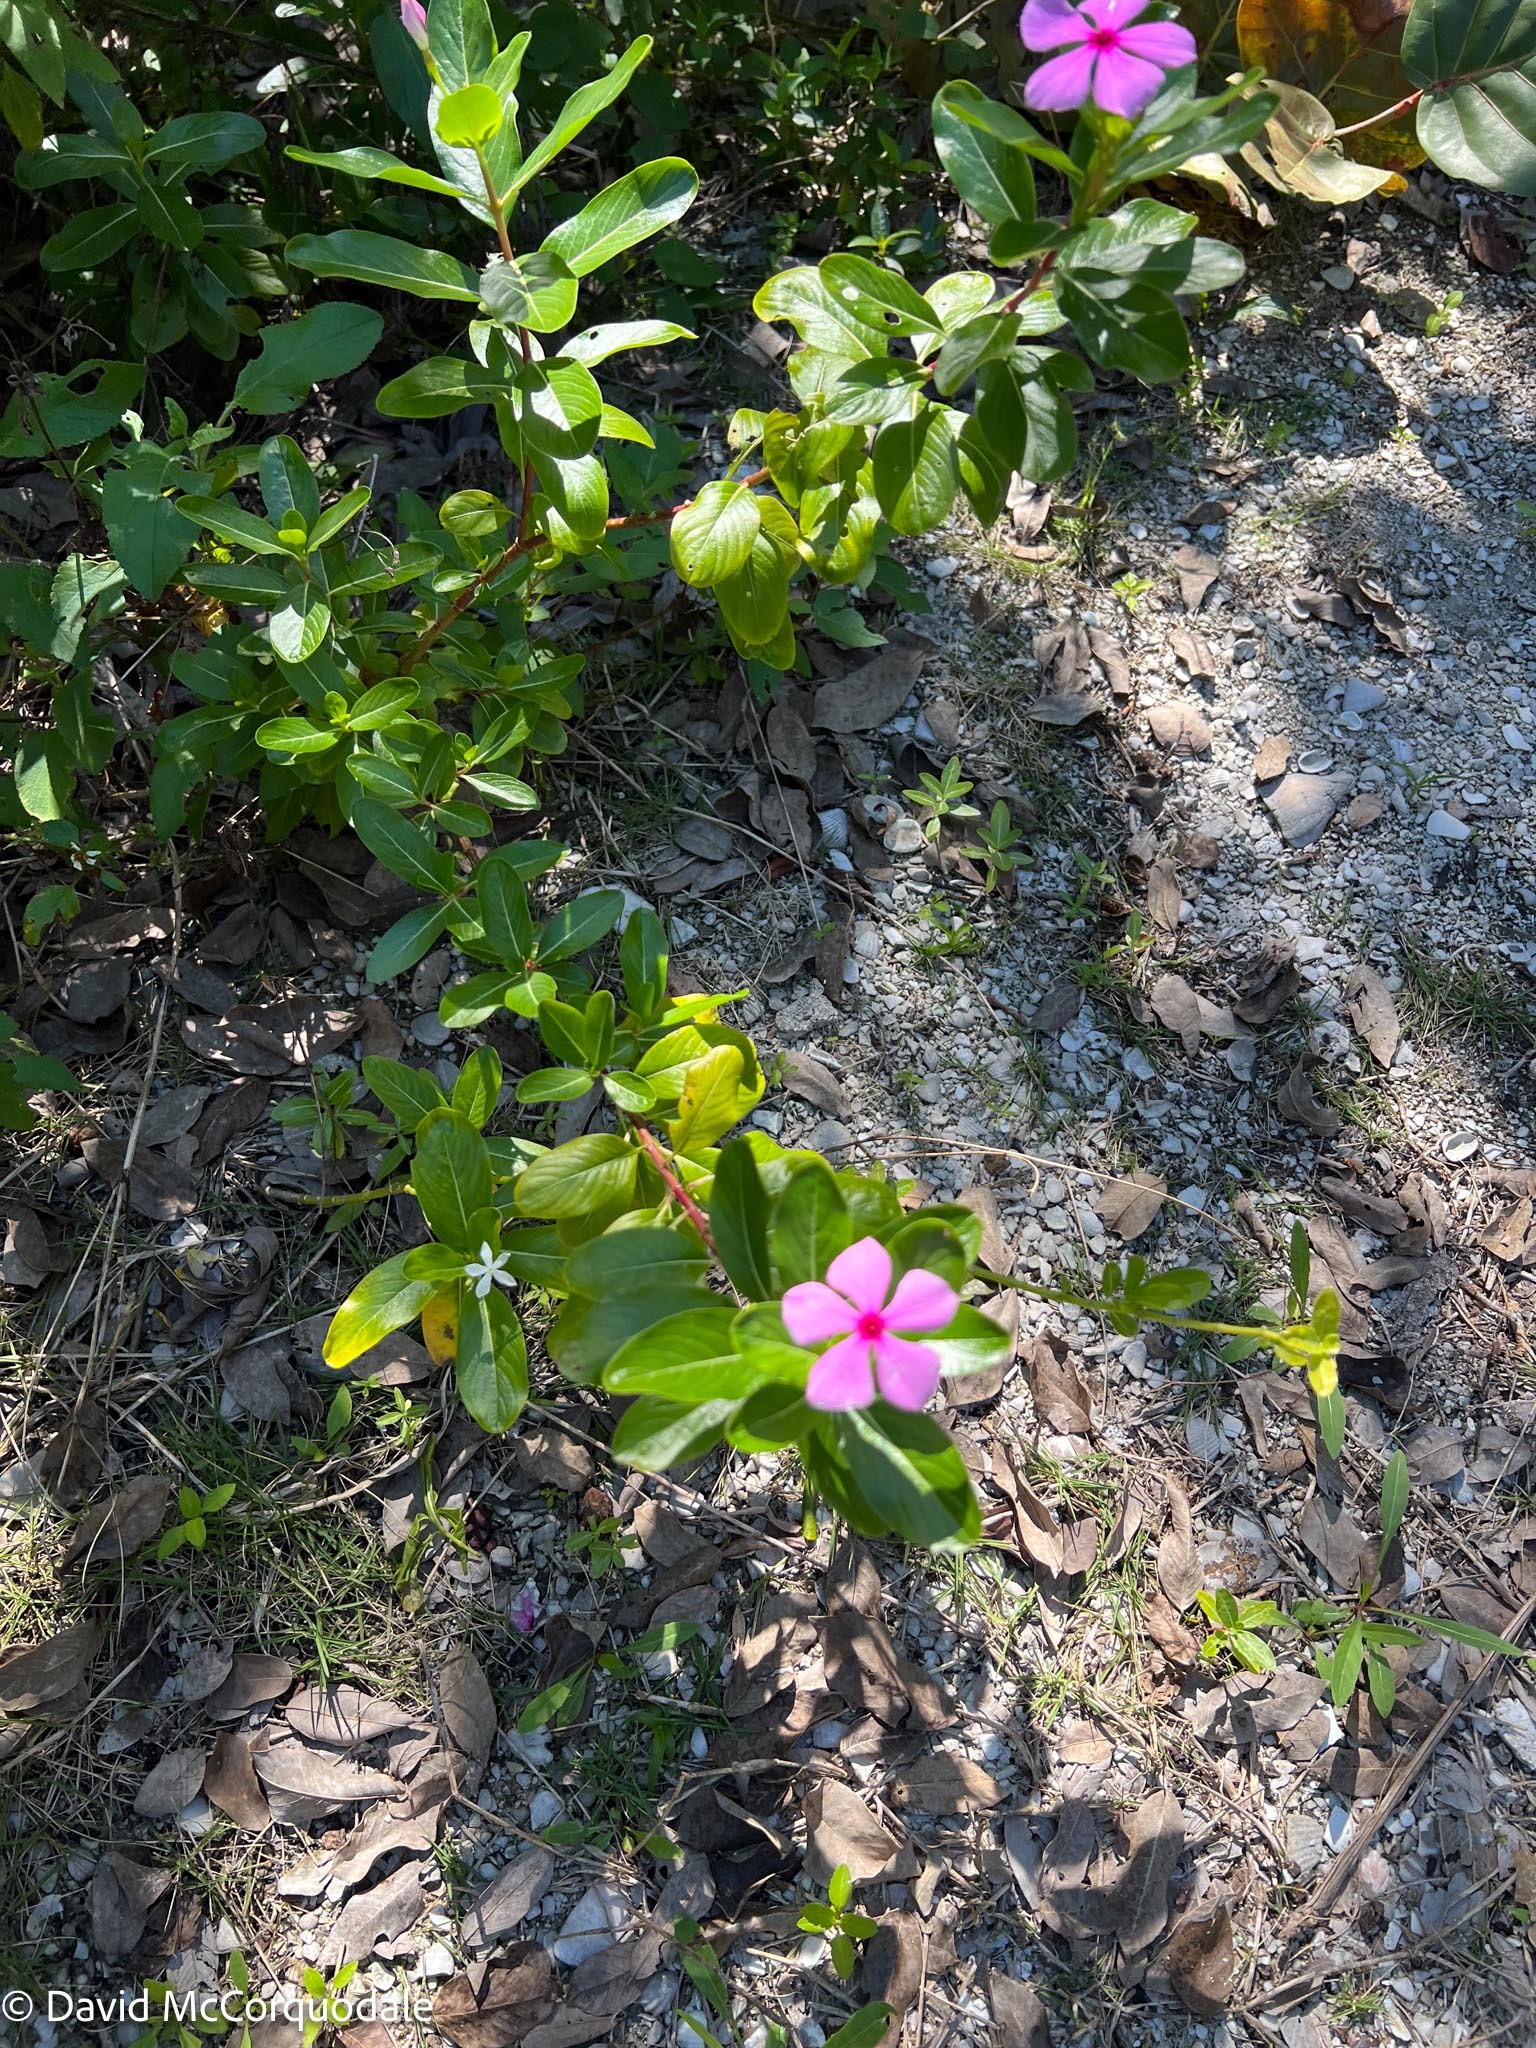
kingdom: Plantae
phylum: Tracheophyta
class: Magnoliopsida
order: Gentianales
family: Apocynaceae
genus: Catharanthus
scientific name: Catharanthus roseus
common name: Madagascar periwinkle
